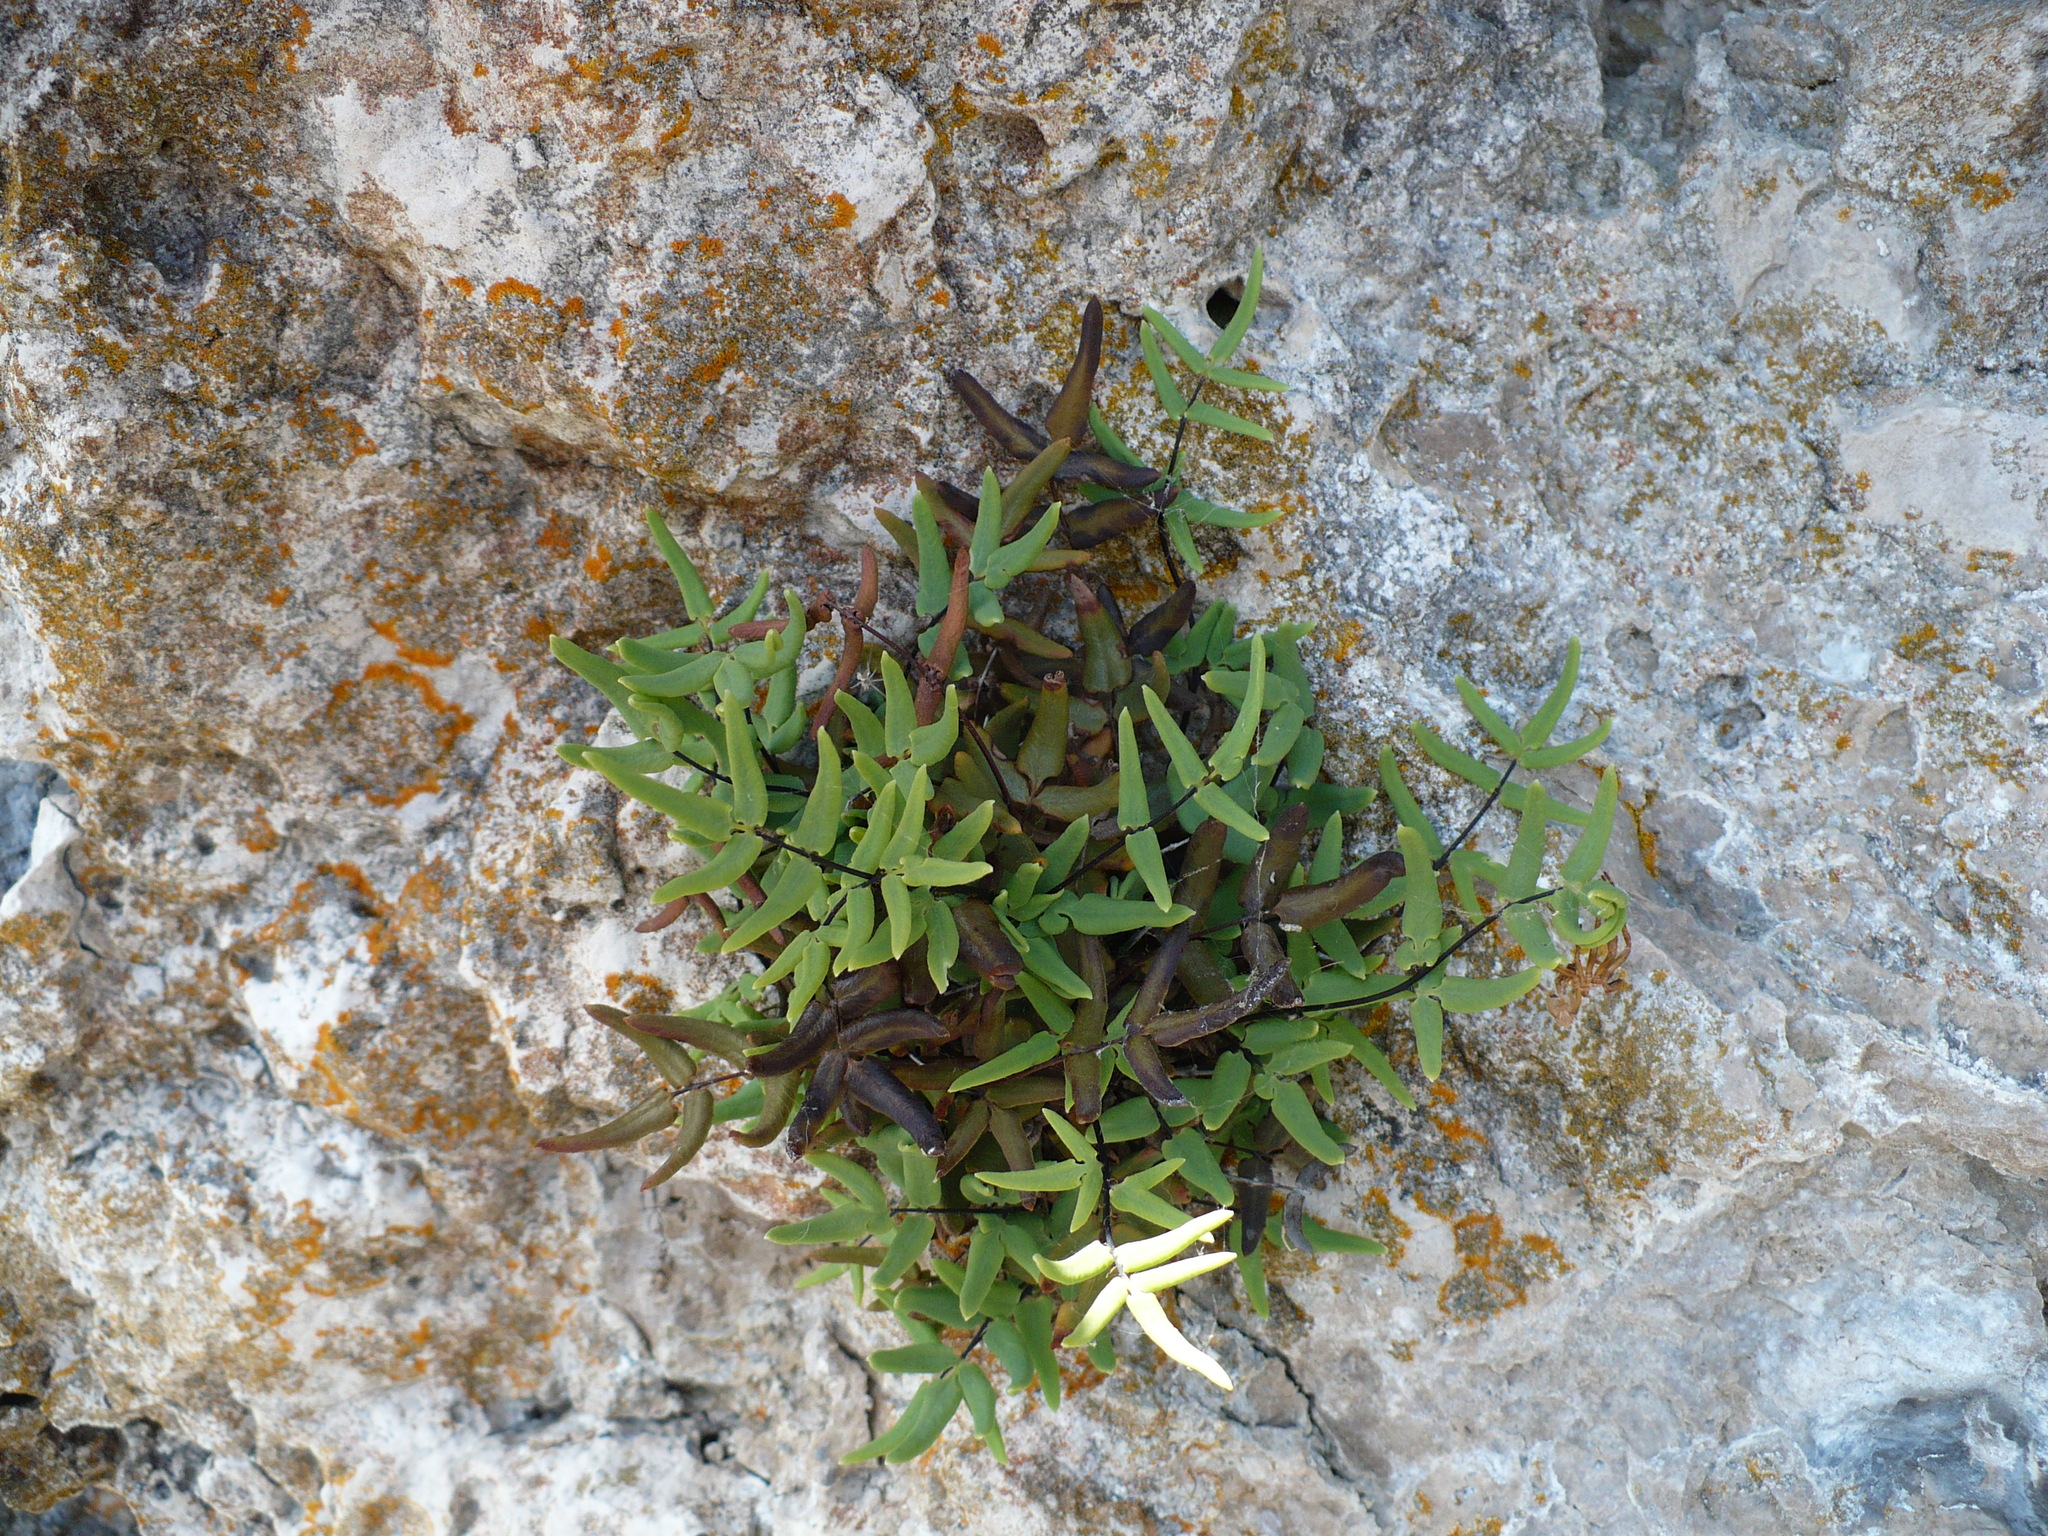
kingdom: Plantae
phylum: Tracheophyta
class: Polypodiopsida
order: Polypodiales
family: Pteridaceae
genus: Pellaea
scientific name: Pellaea glabella
